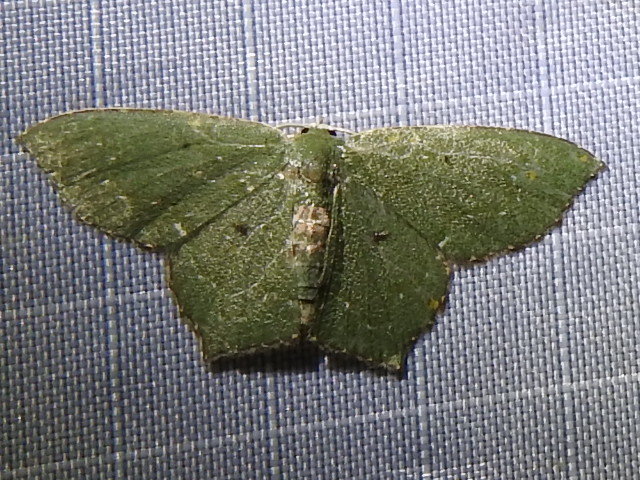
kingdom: Animalia
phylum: Arthropoda
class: Insecta
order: Lepidoptera
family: Geometridae
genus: Chloropteryx
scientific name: Chloropteryx nordicaria
